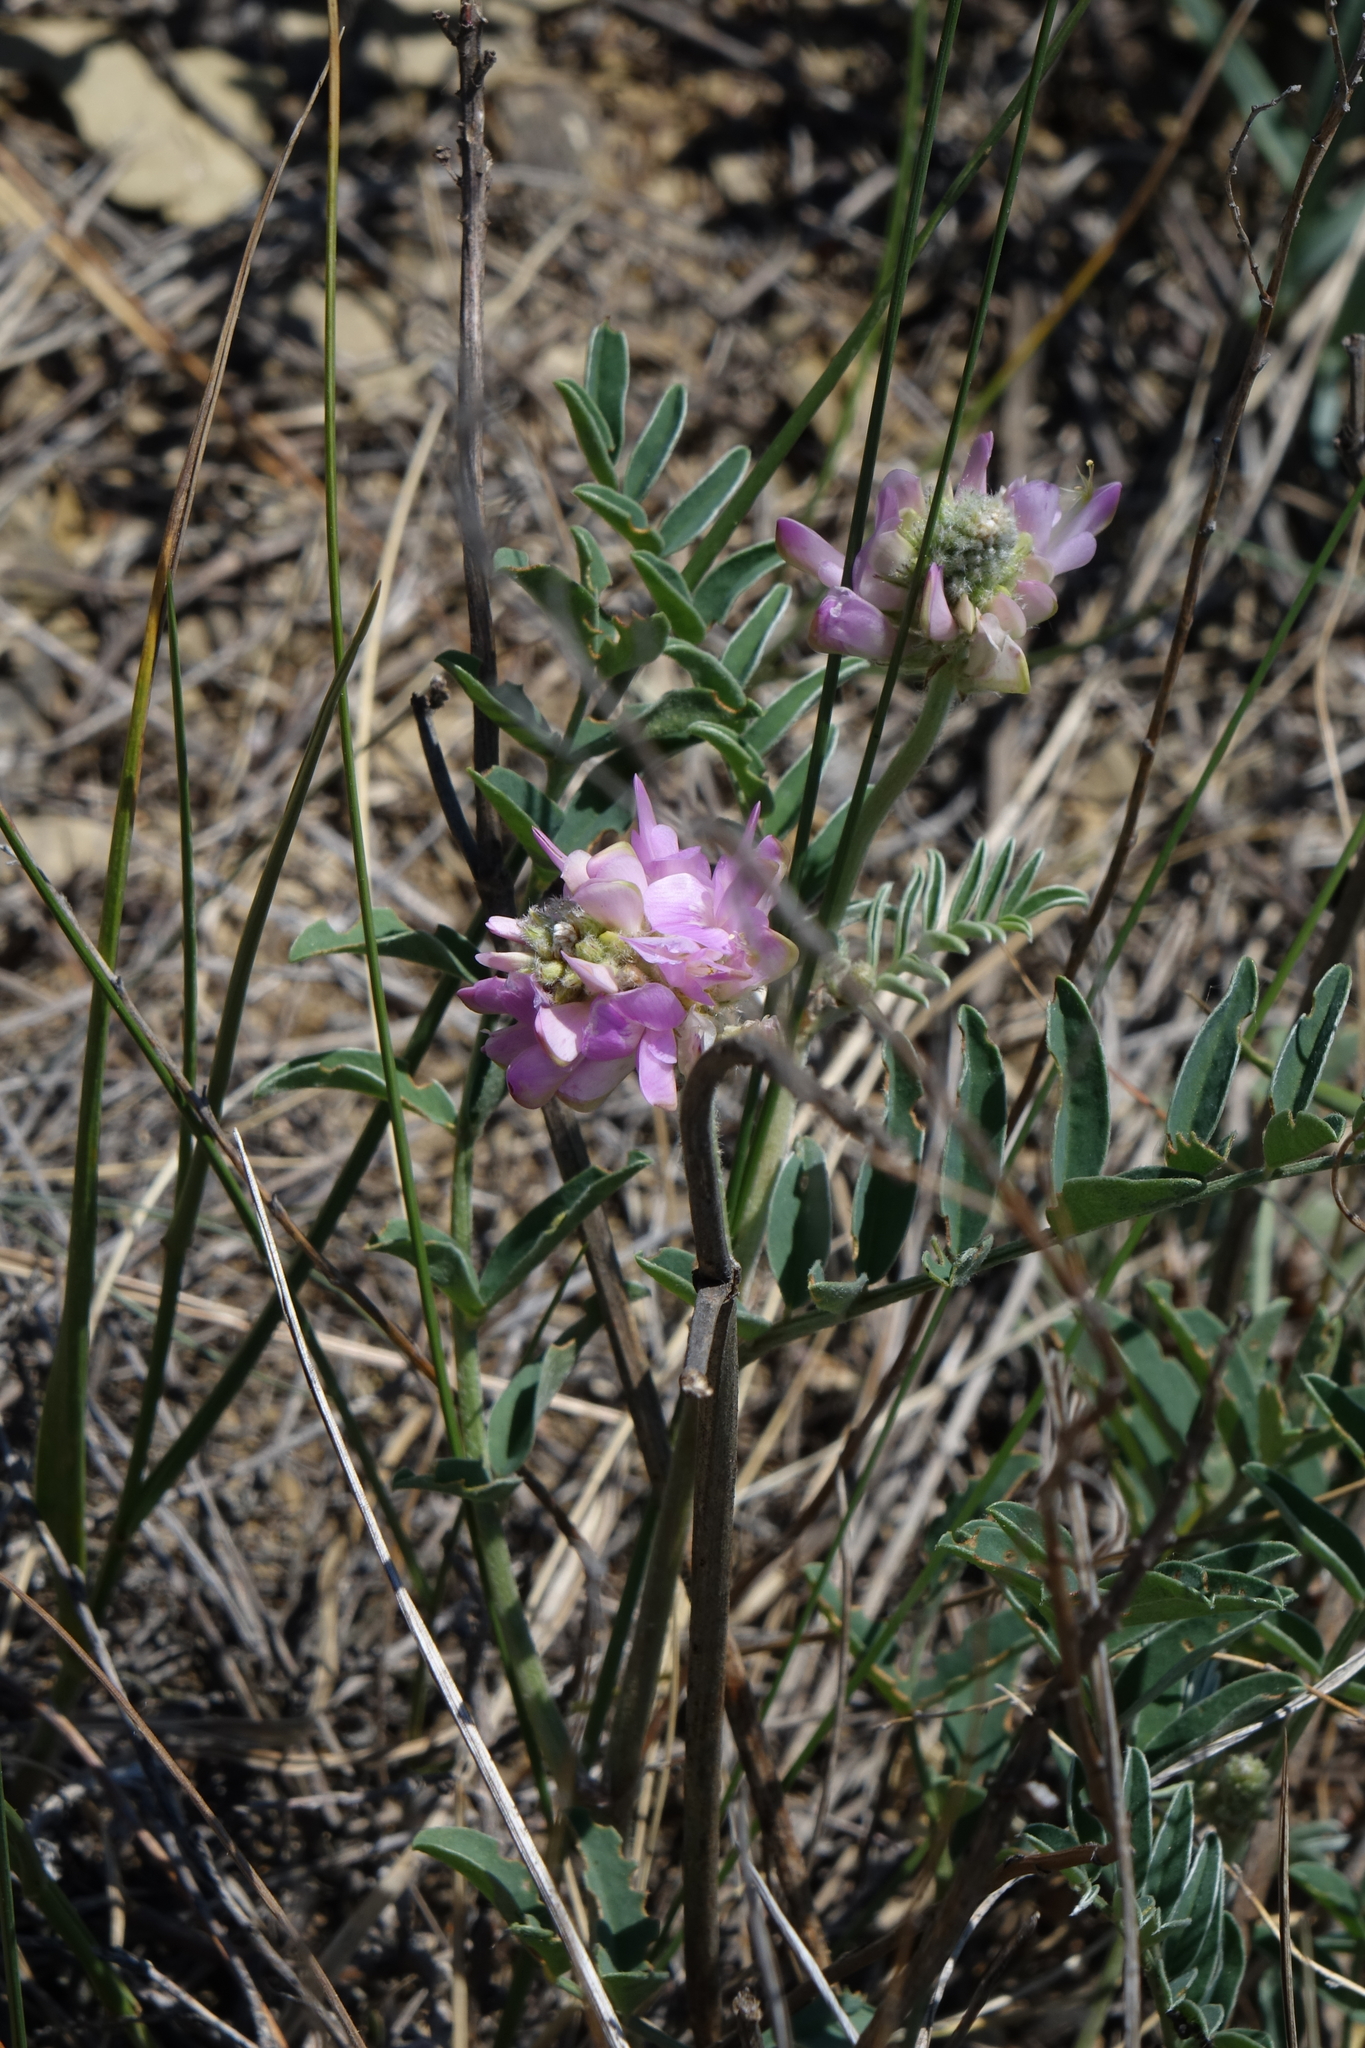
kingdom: Plantae
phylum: Tracheophyta
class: Magnoliopsida
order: Fabales
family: Fabaceae
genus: Hedysarum
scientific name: Hedysarum gmelinii
